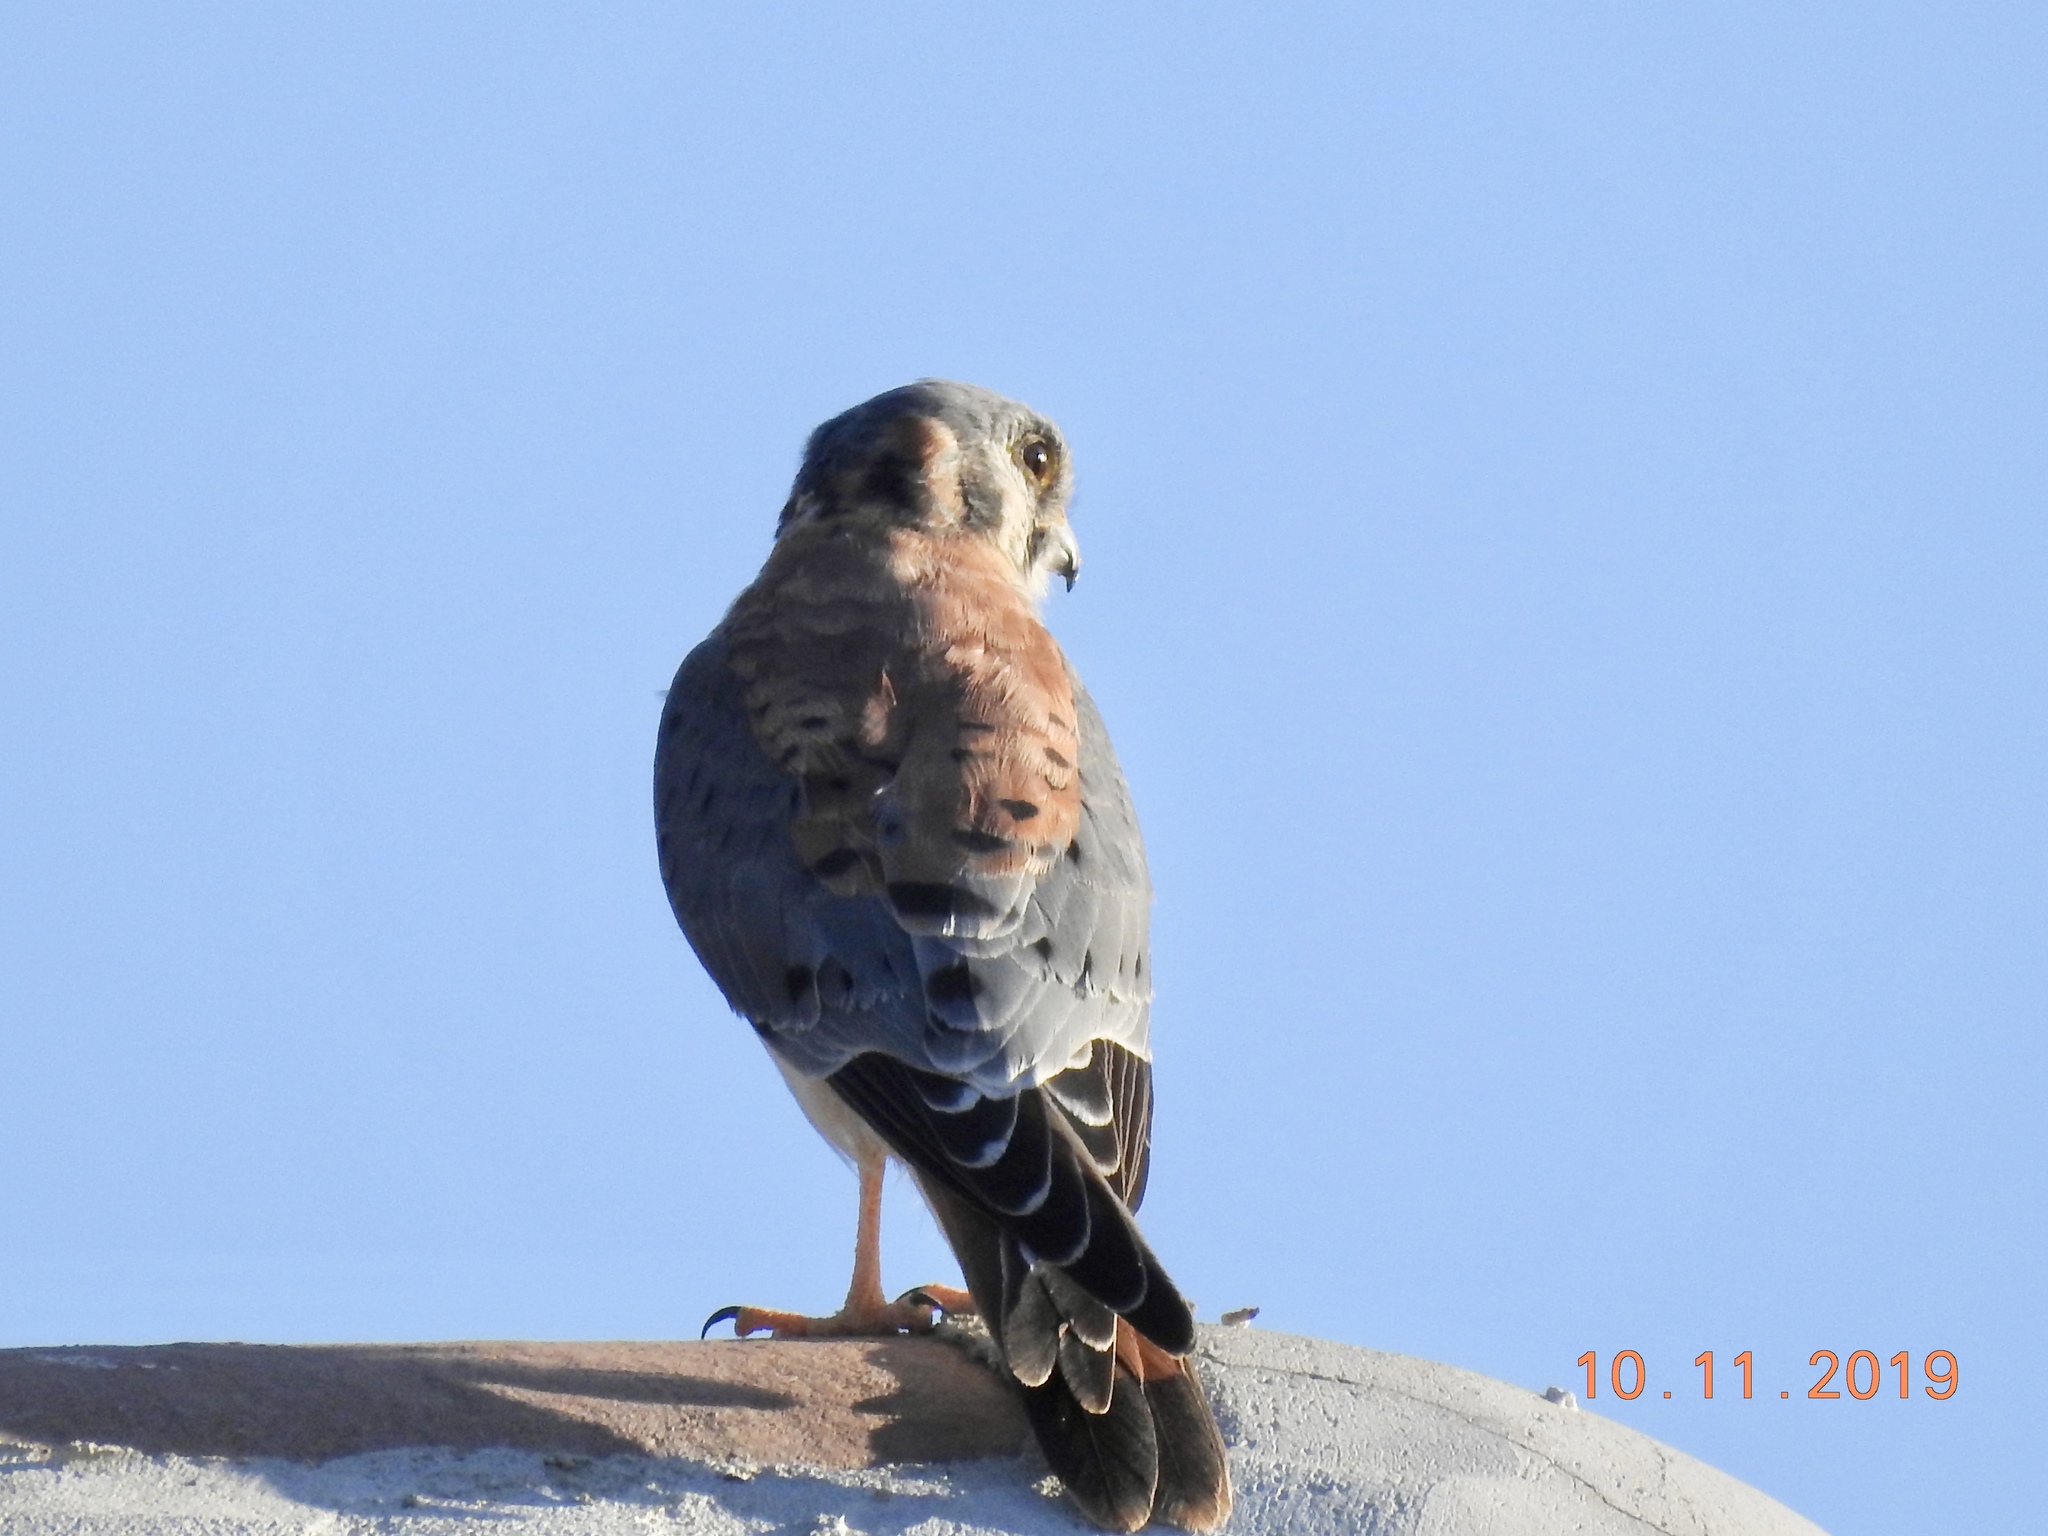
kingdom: Animalia
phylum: Chordata
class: Aves
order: Falconiformes
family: Falconidae
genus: Falco
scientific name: Falco sparverius
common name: American kestrel
